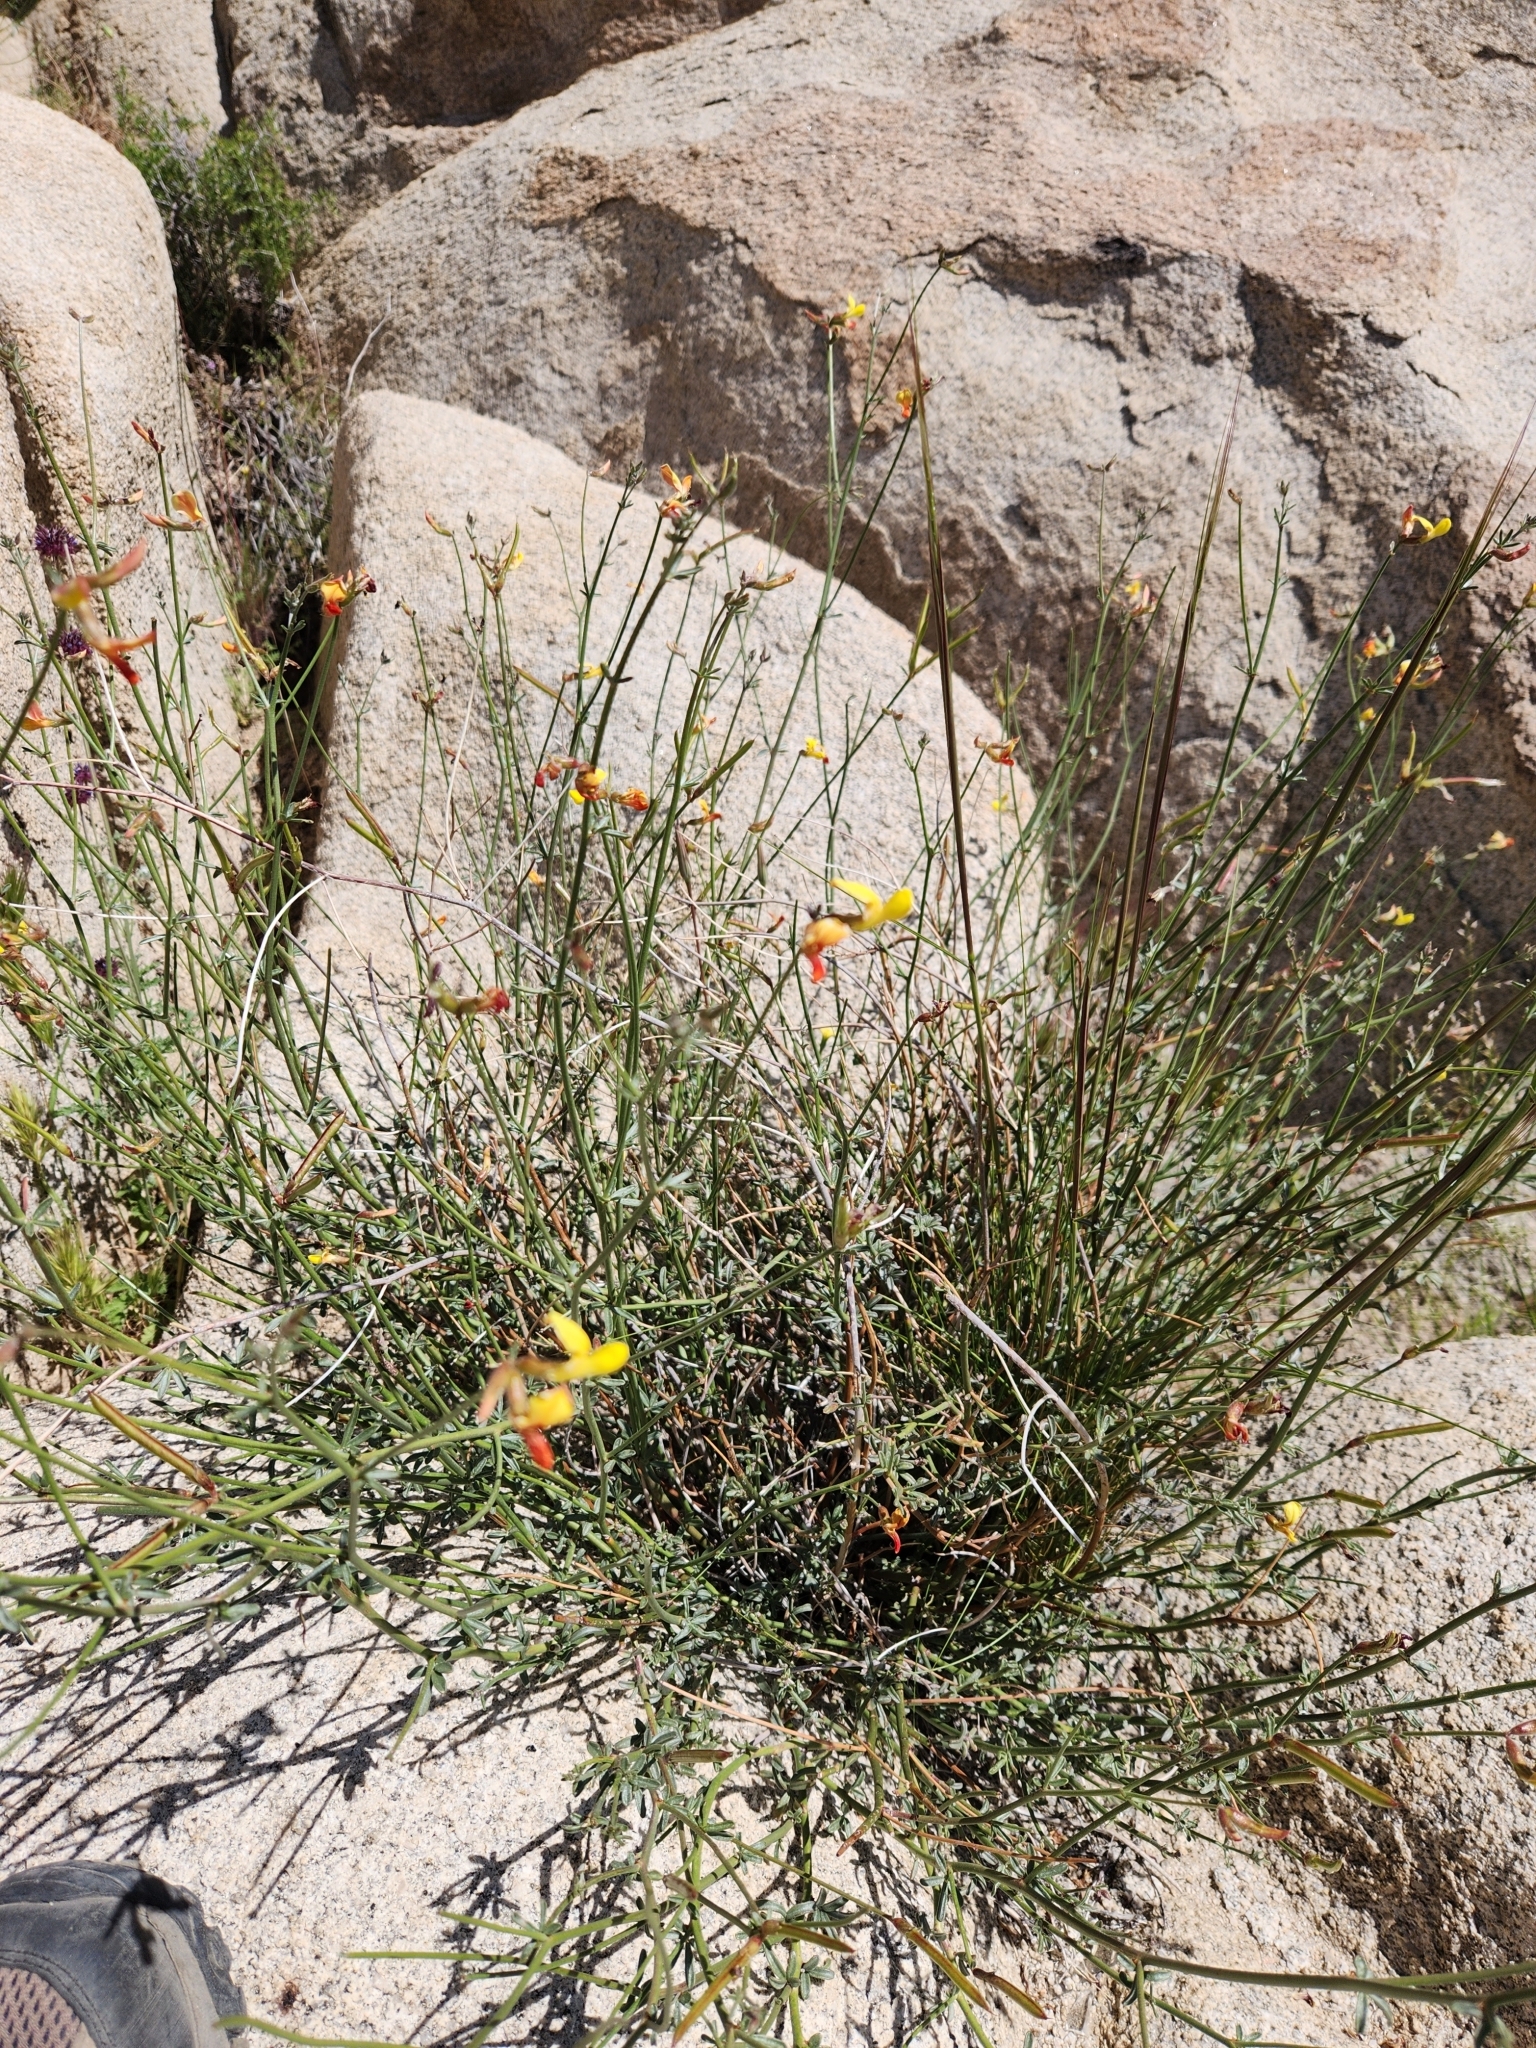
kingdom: Plantae
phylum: Tracheophyta
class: Magnoliopsida
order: Fabales
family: Fabaceae
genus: Acmispon
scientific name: Acmispon rigidus
